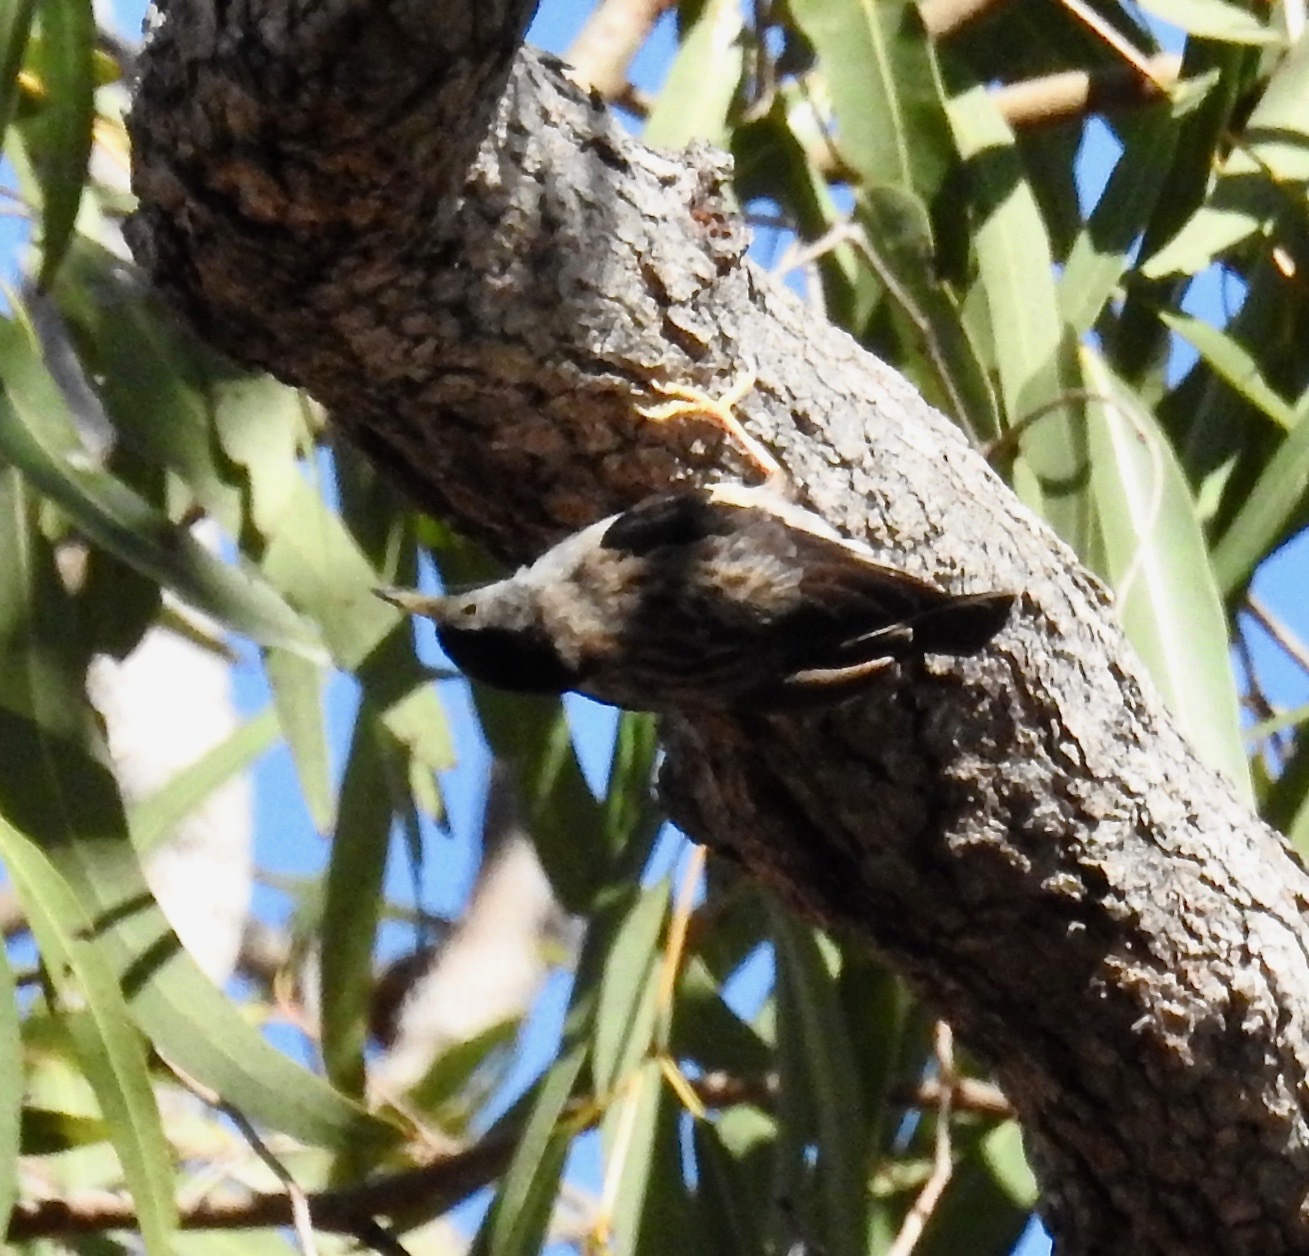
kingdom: Animalia
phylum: Chordata
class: Aves
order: Passeriformes
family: Neosittidae
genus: Daphoenositta
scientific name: Daphoenositta chrysoptera
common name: Varied sittella
